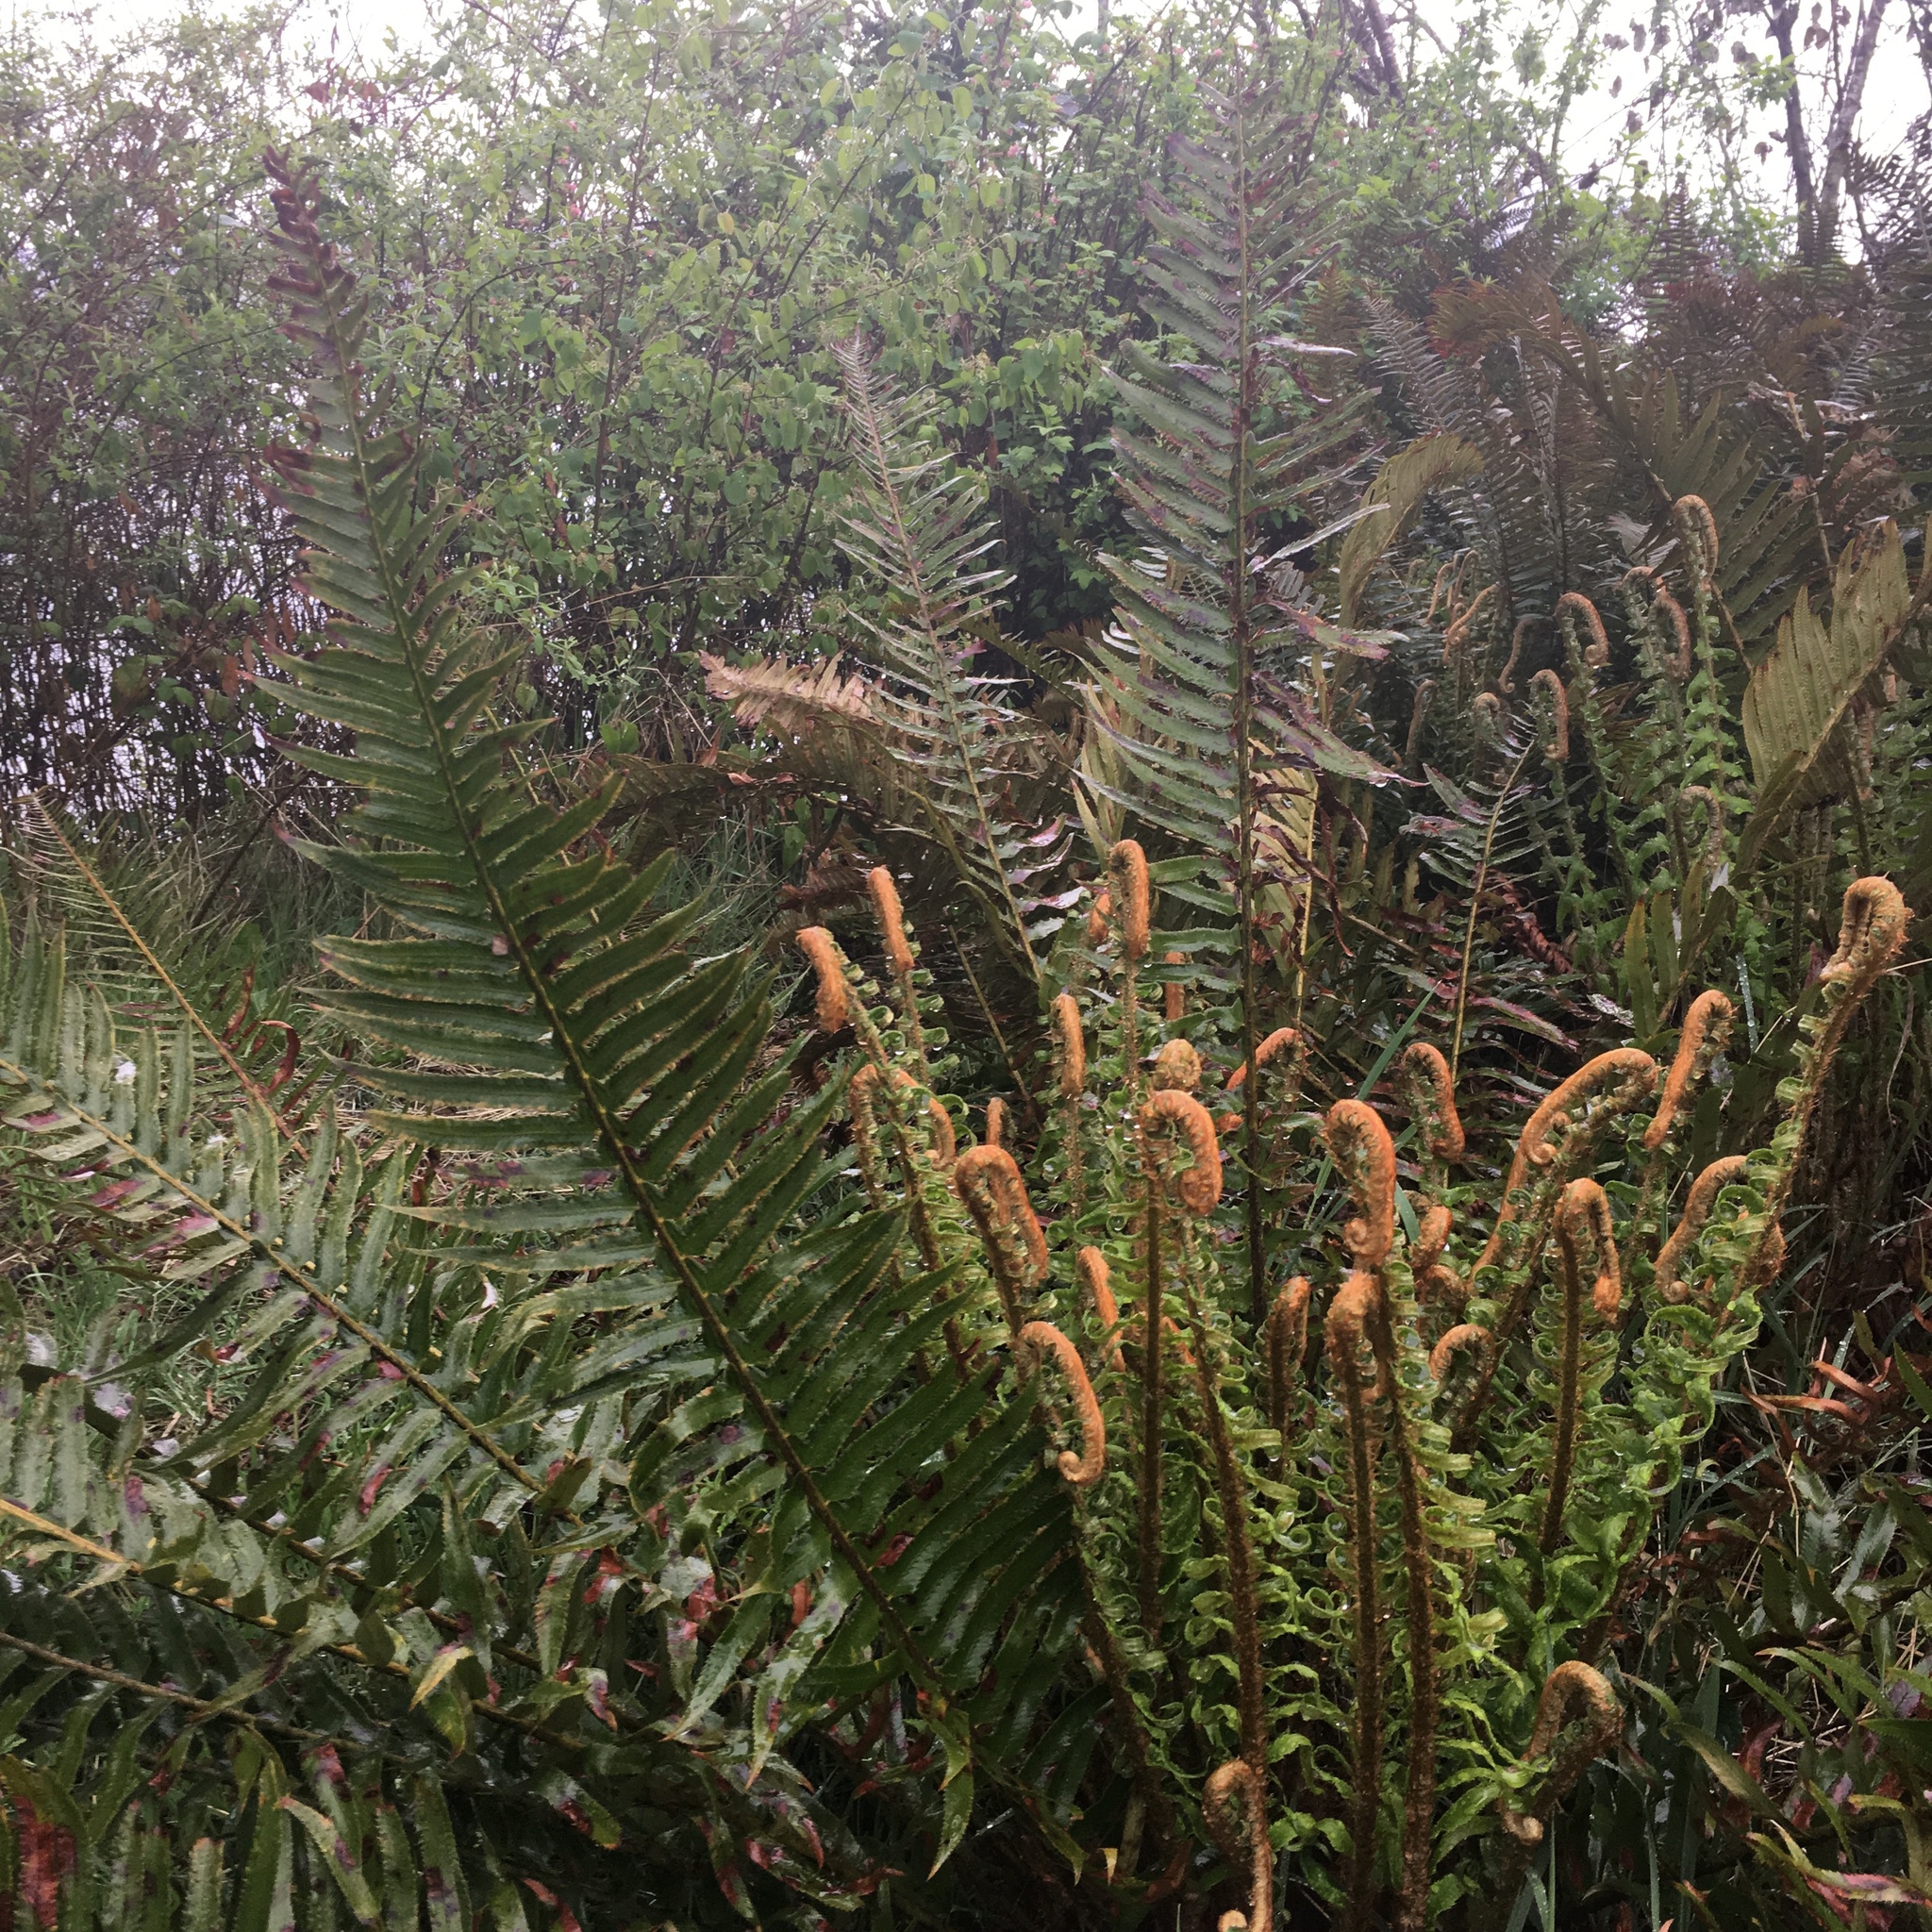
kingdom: Plantae
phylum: Tracheophyta
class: Polypodiopsida
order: Polypodiales
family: Dryopteridaceae
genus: Polystichum
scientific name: Polystichum munitum
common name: Western sword-fern
